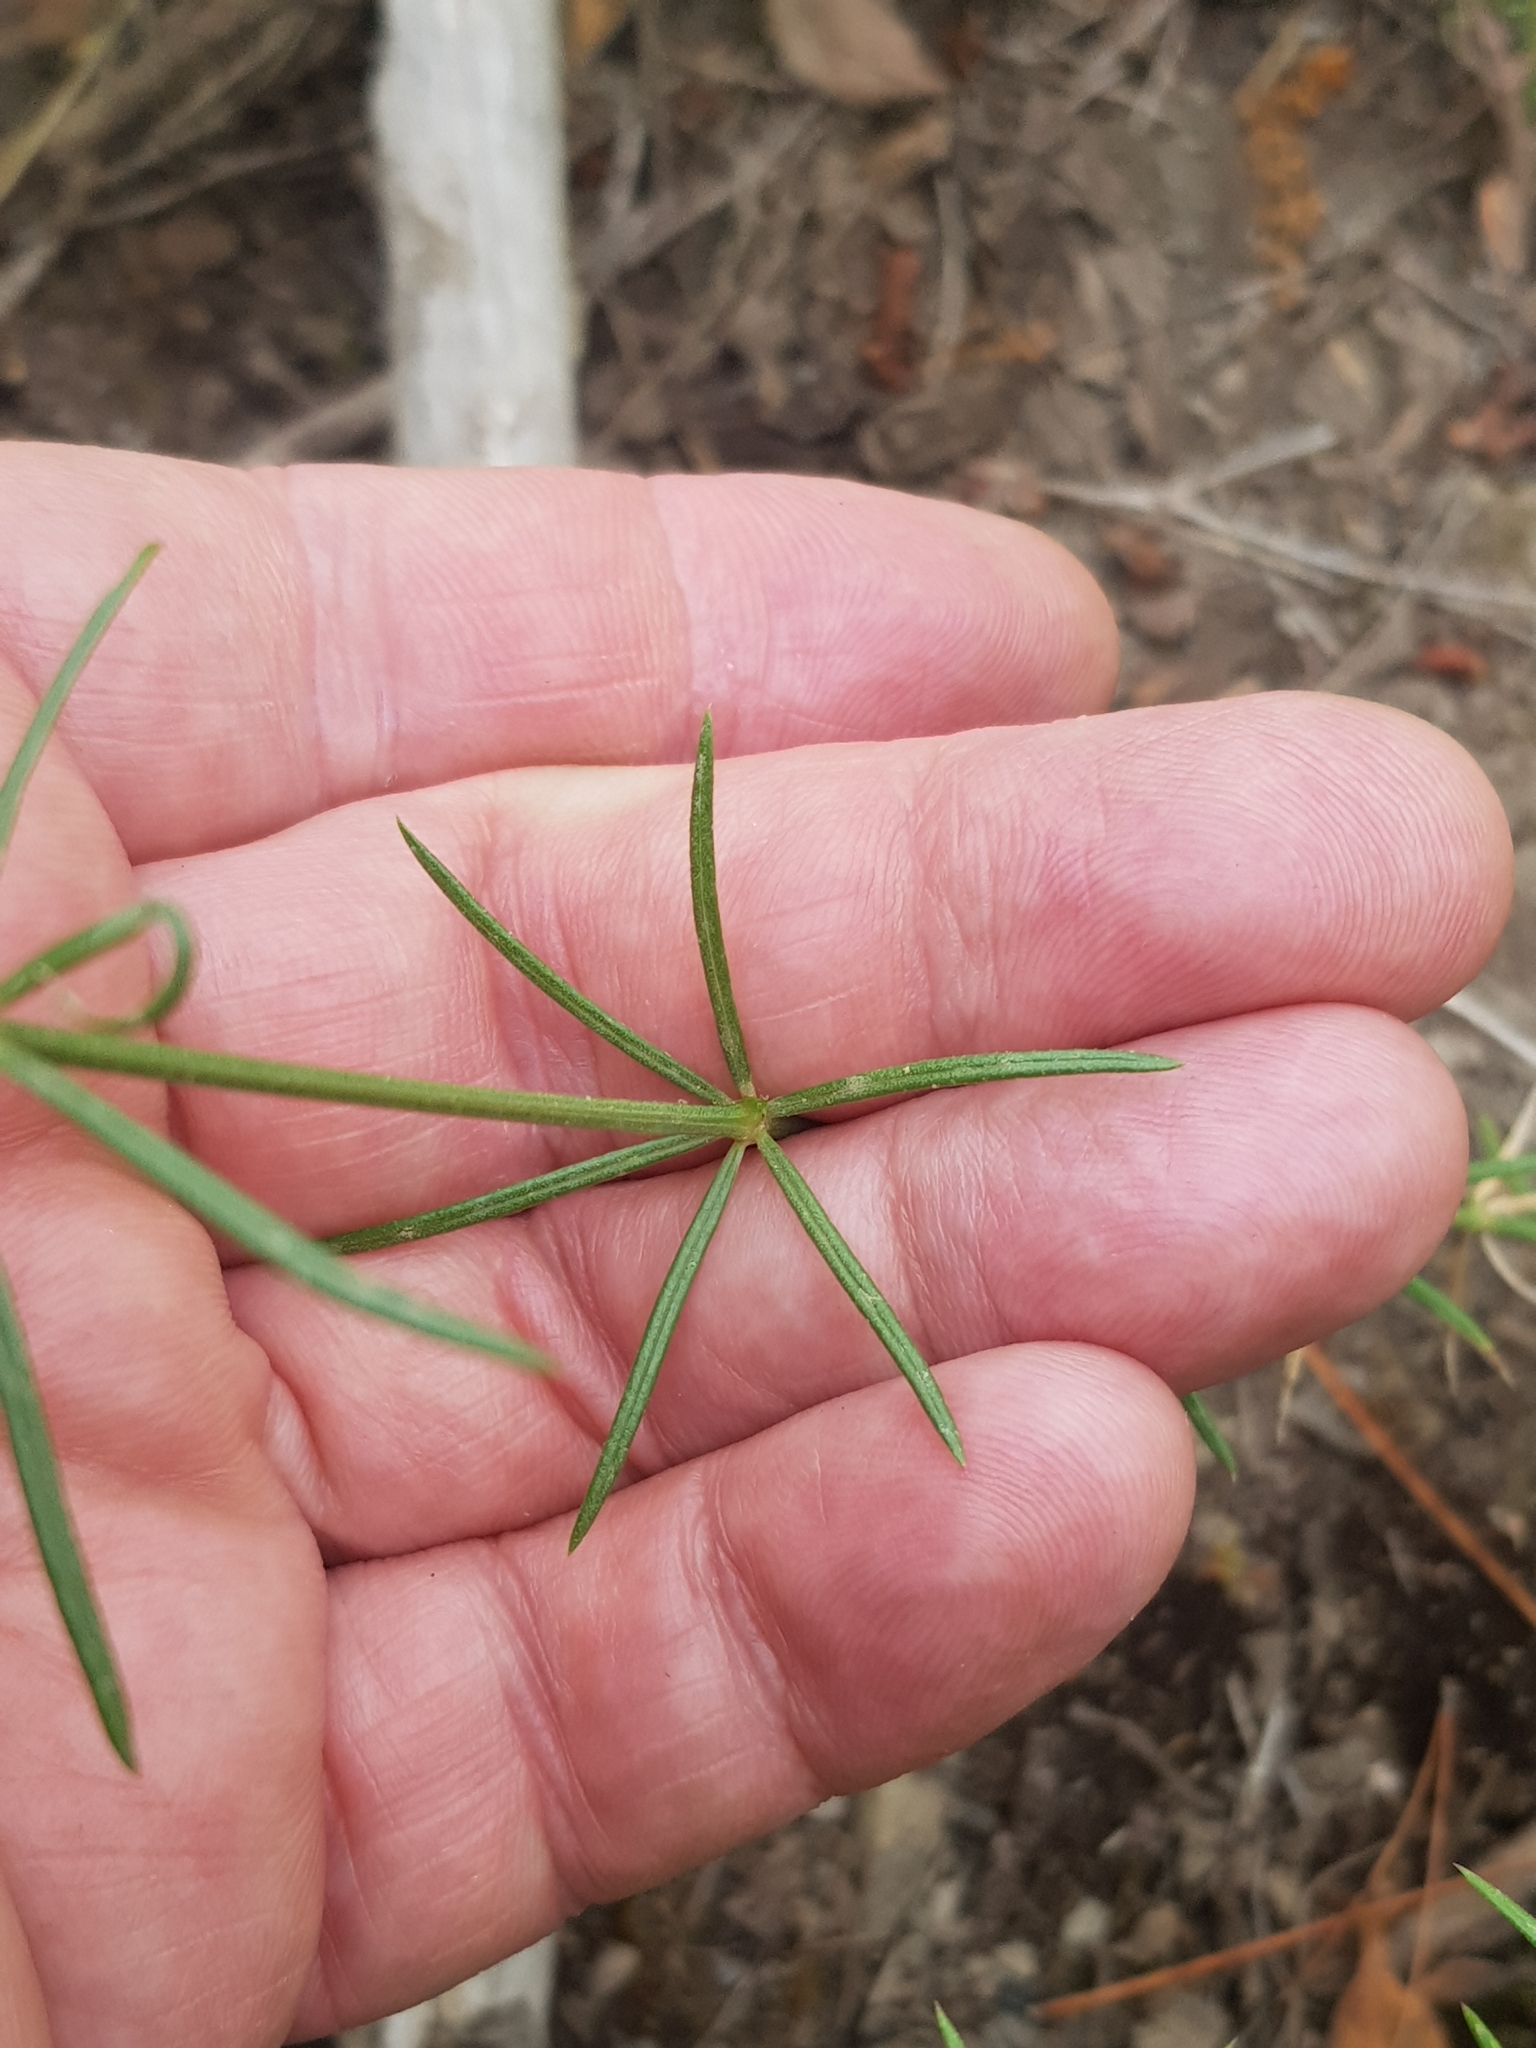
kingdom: Plantae
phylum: Tracheophyta
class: Magnoliopsida
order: Gentianales
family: Rubiaceae
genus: Hexaphylla
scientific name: Hexaphylla hirsuta
